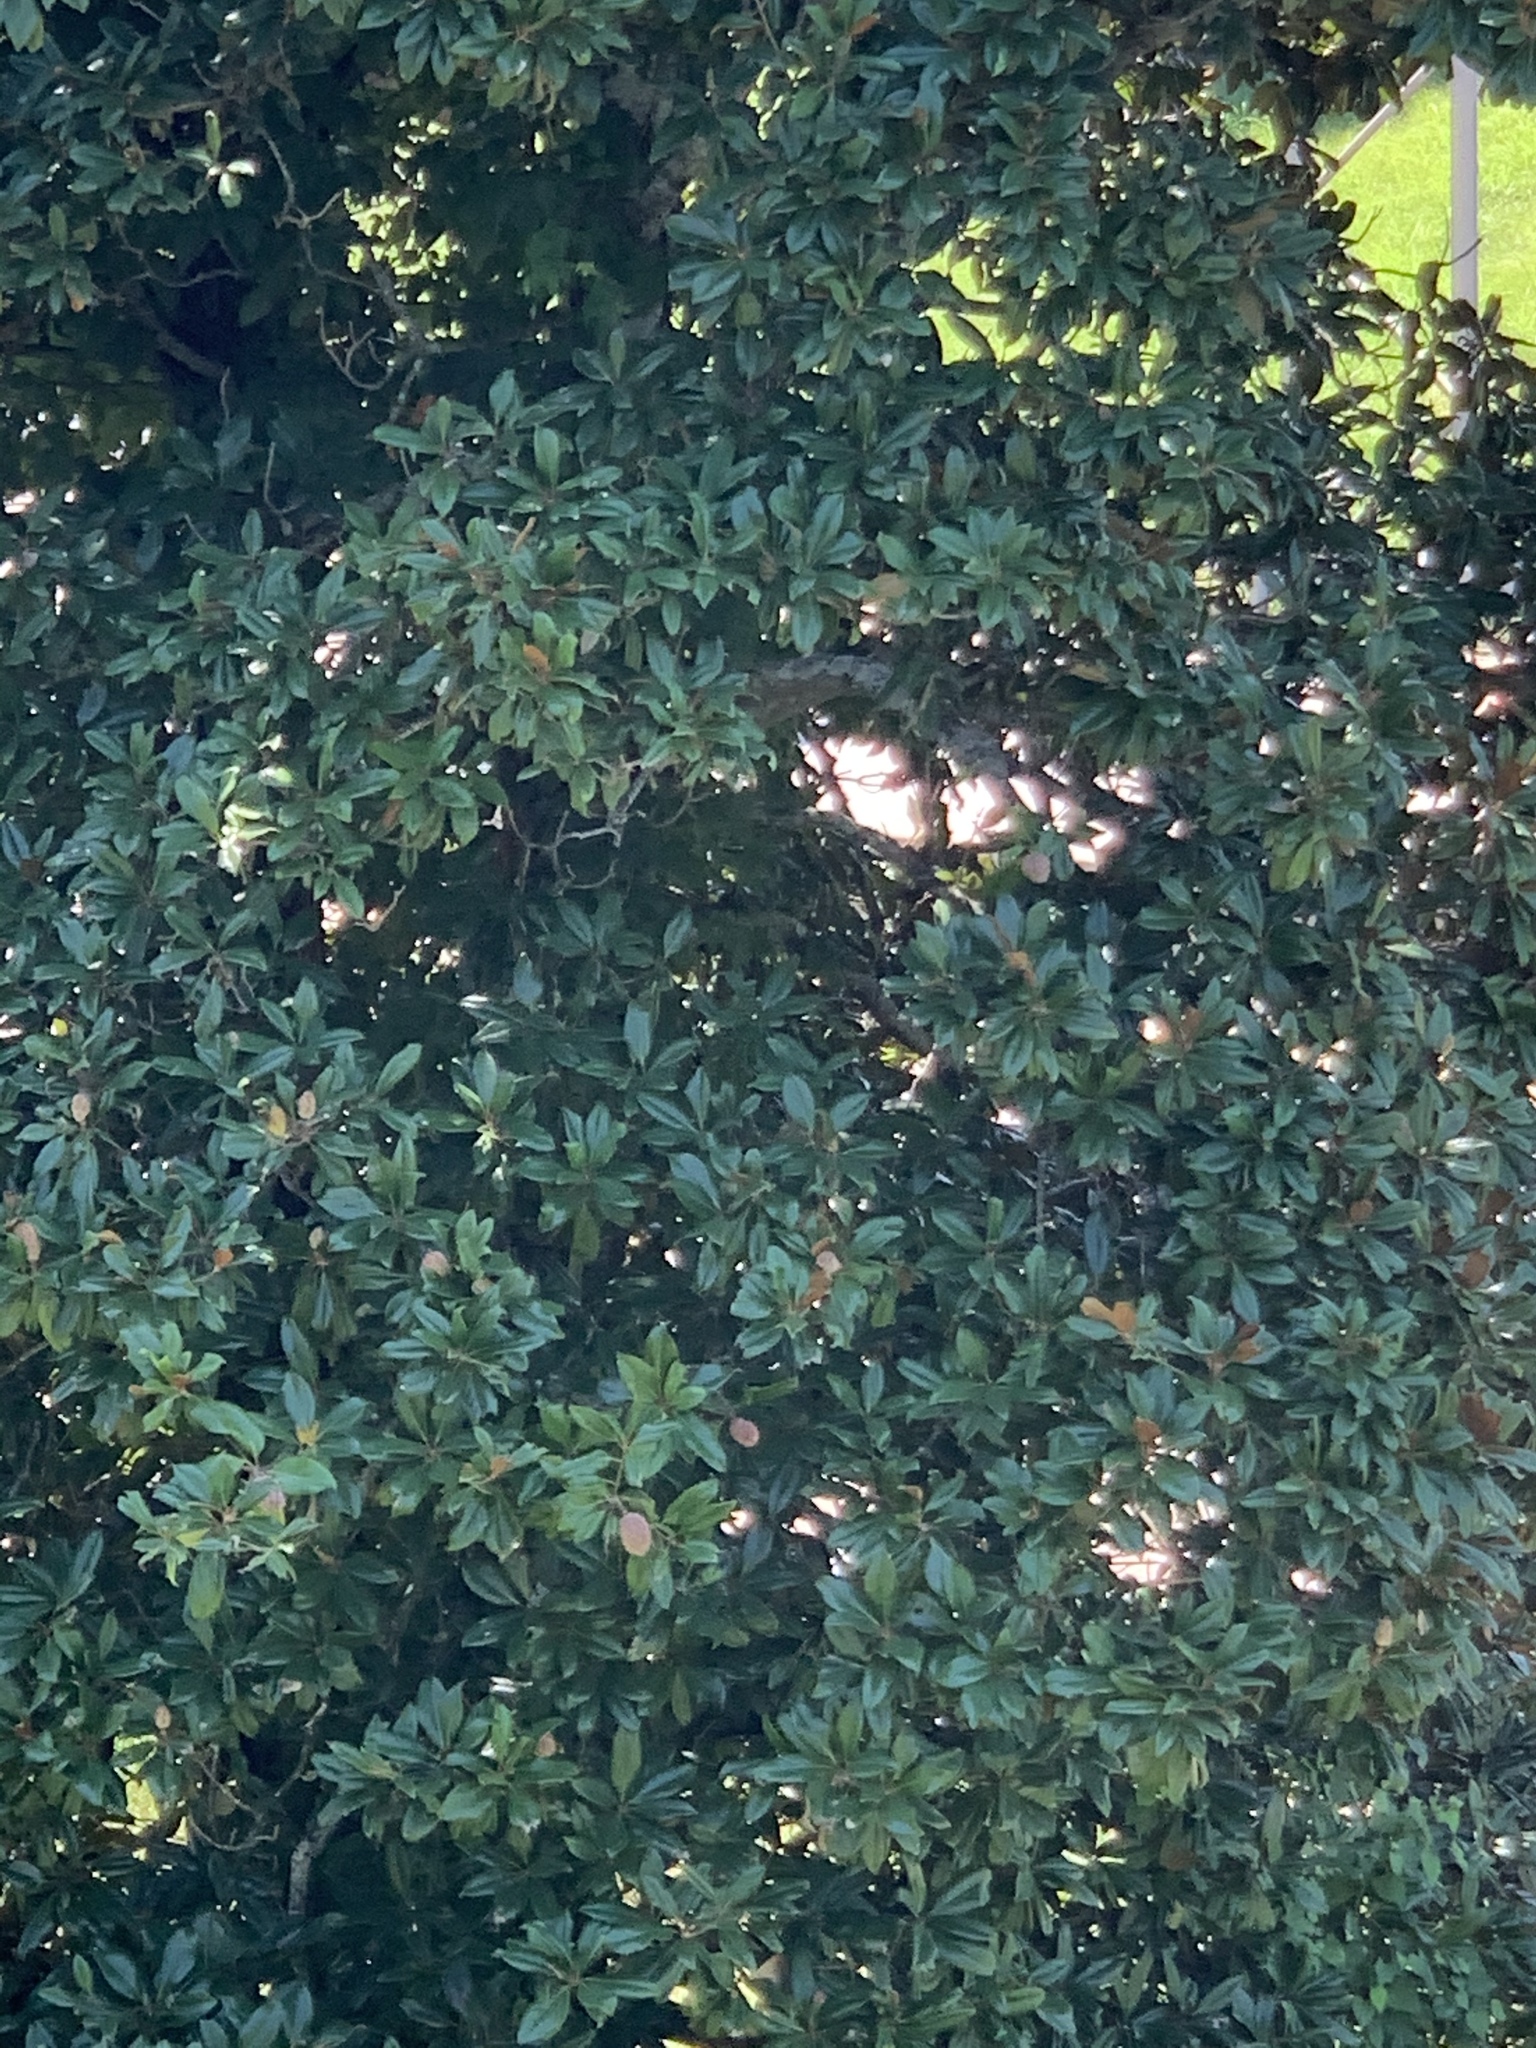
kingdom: Plantae
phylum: Tracheophyta
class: Magnoliopsida
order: Magnoliales
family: Magnoliaceae
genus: Magnolia
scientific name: Magnolia grandiflora
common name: Southern magnolia
